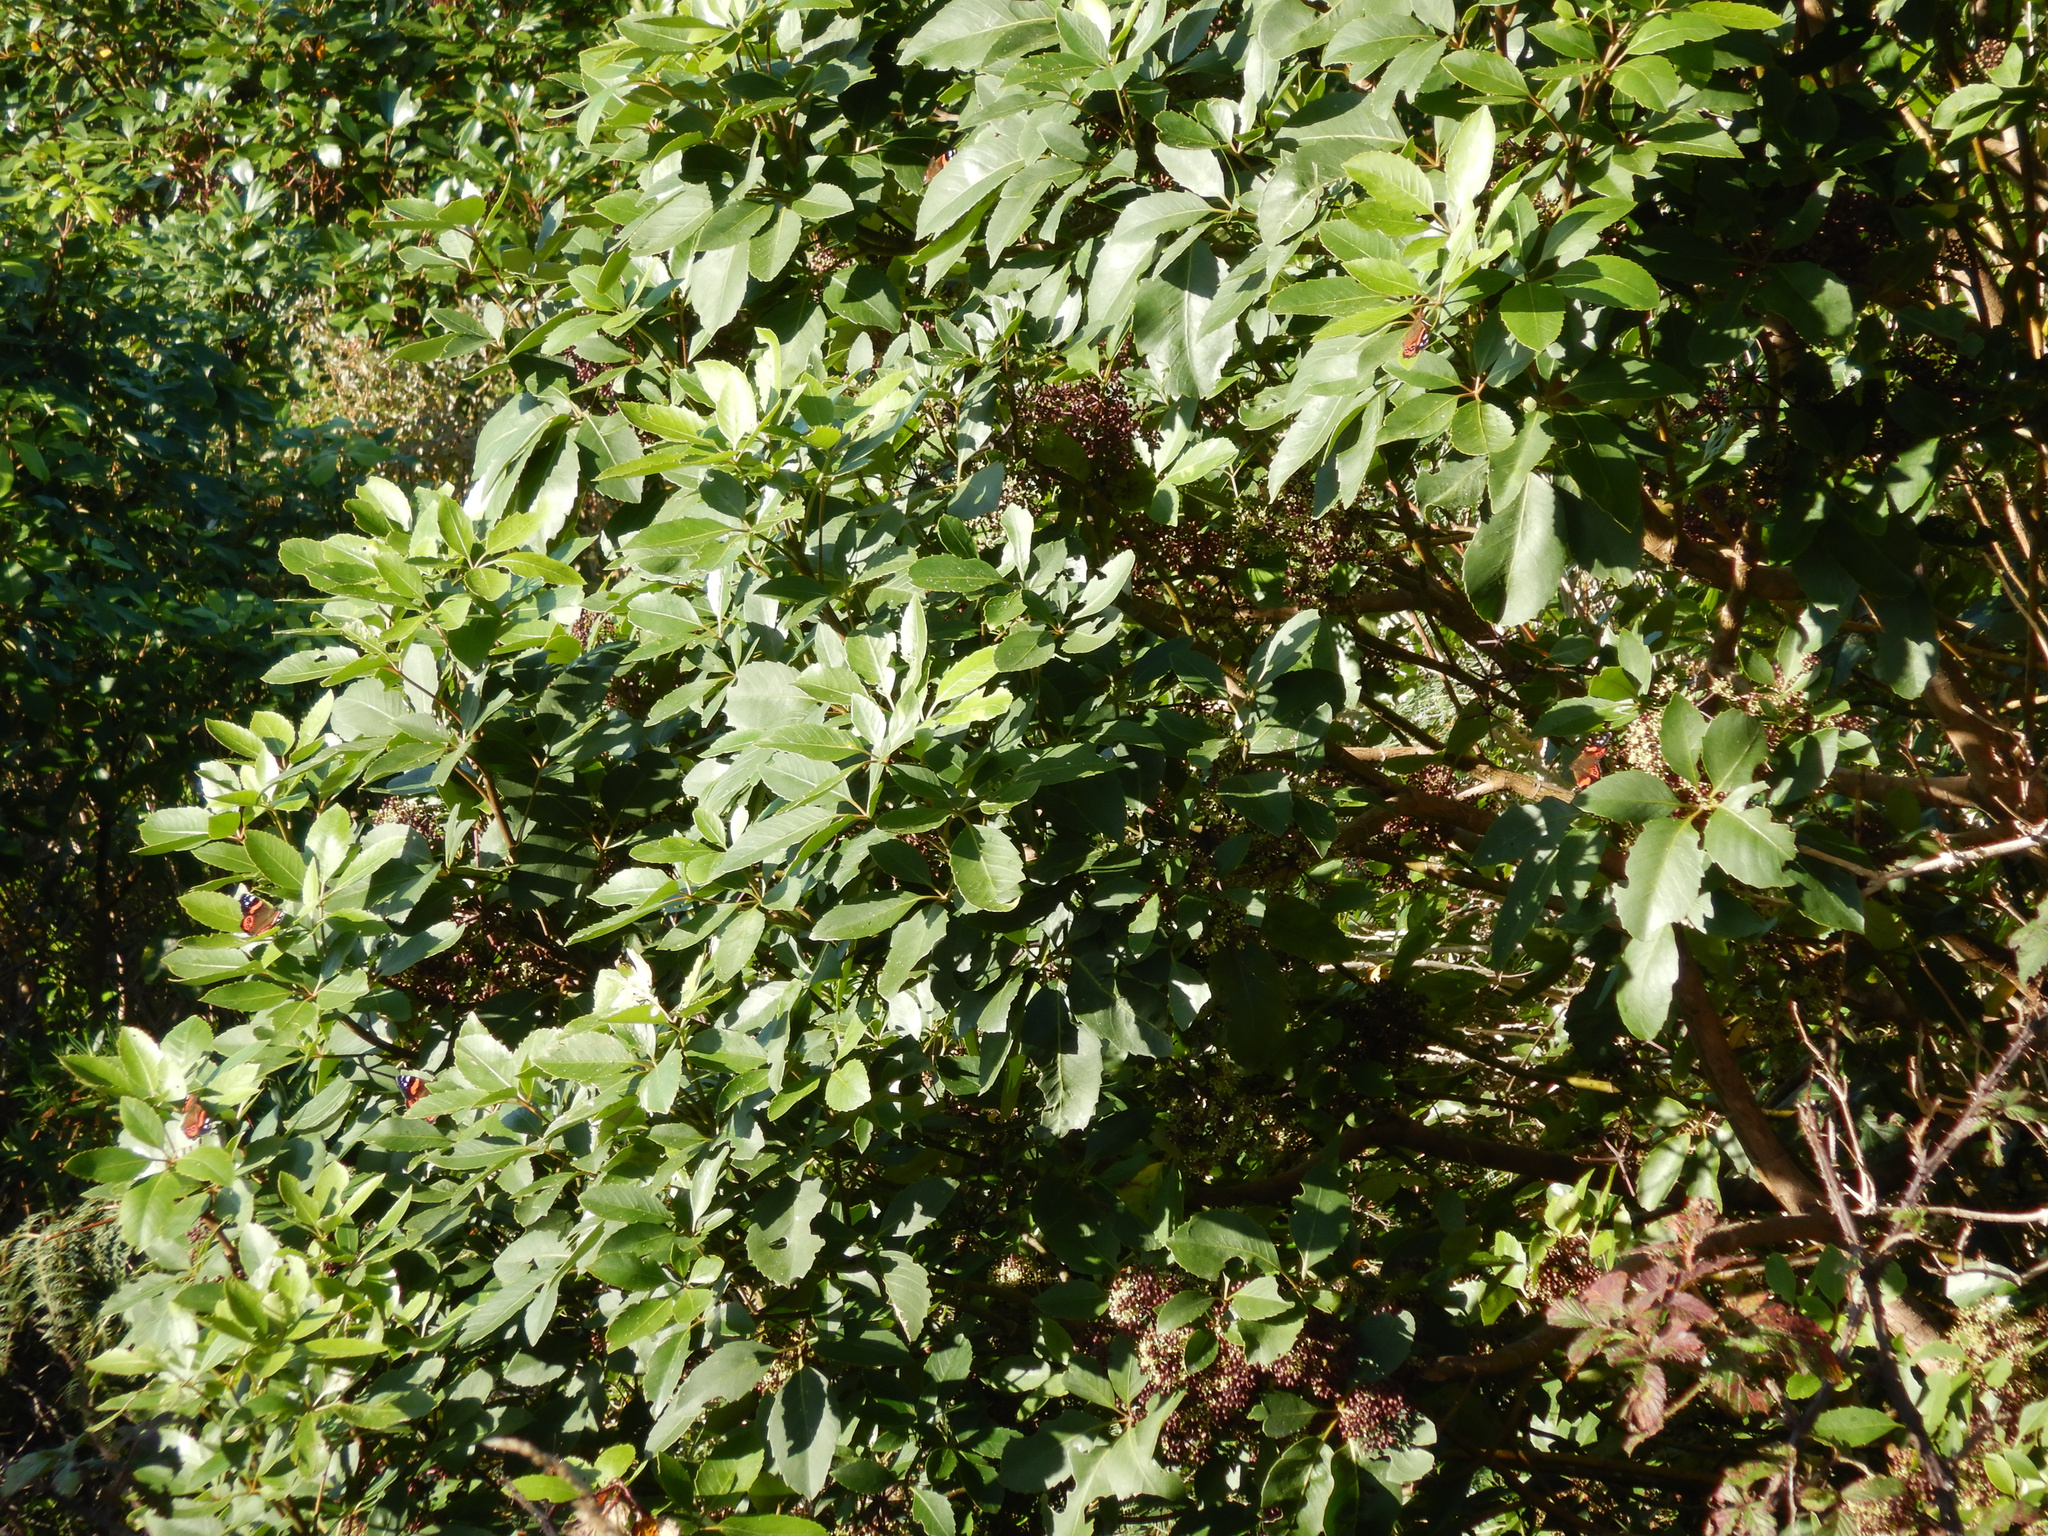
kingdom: Animalia
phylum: Arthropoda
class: Insecta
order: Lepidoptera
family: Nymphalidae
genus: Vanessa
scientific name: Vanessa gonerilla
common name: New zealand red admiral
